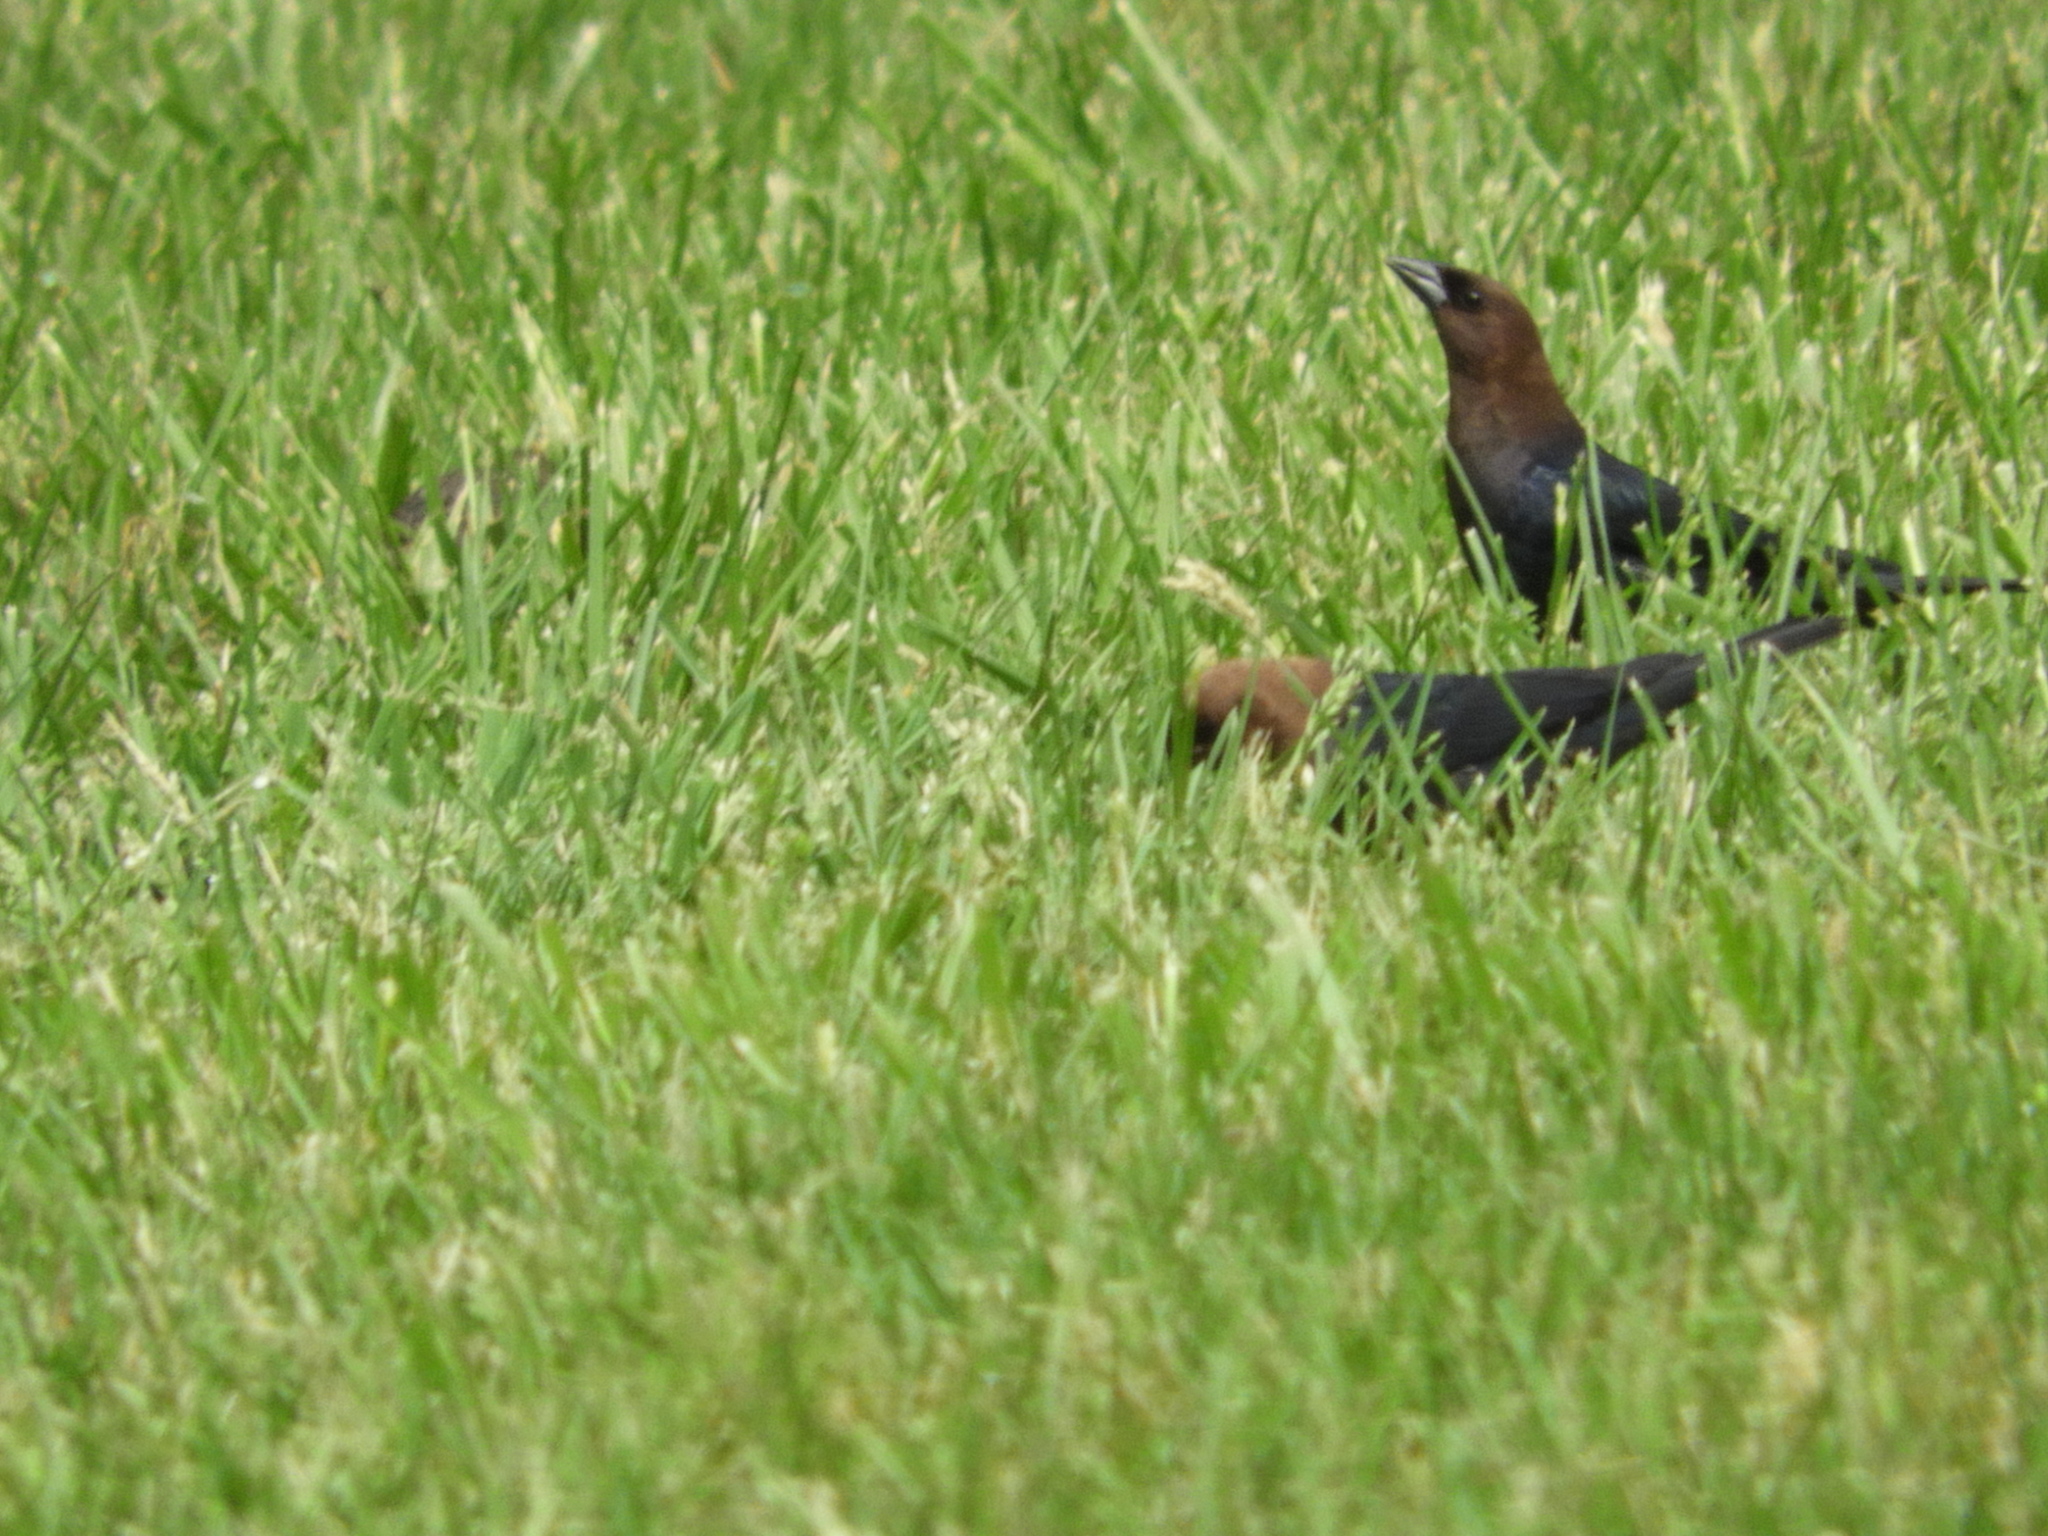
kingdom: Animalia
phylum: Chordata
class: Aves
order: Passeriformes
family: Icteridae
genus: Molothrus
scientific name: Molothrus ater
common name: Brown-headed cowbird
